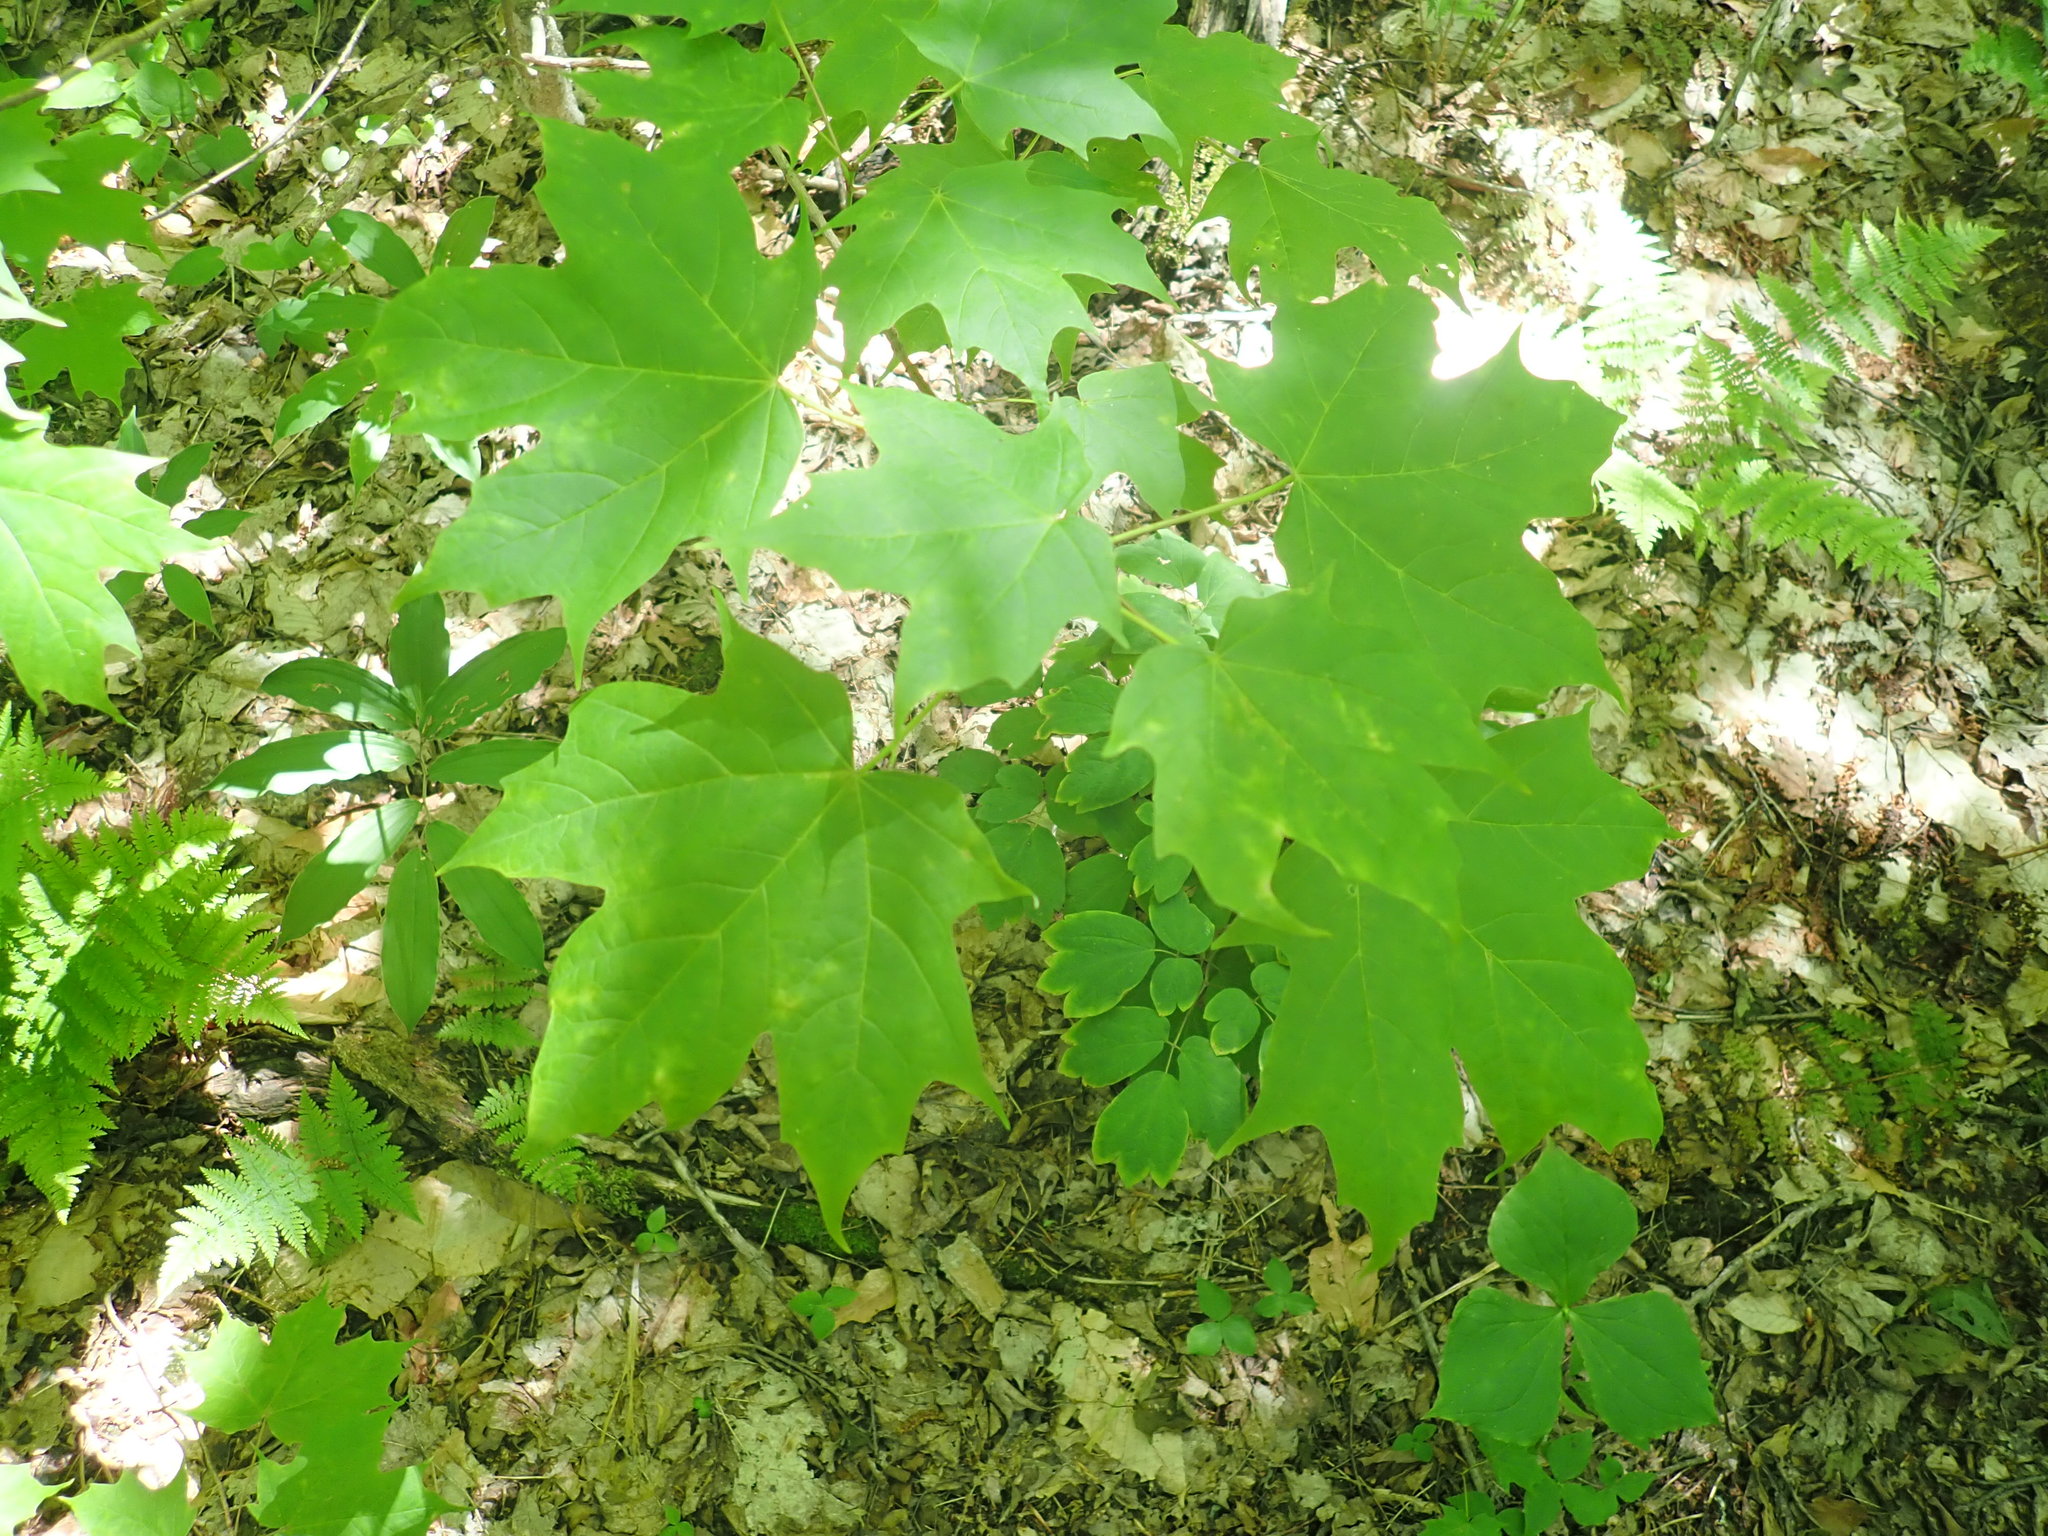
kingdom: Plantae
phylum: Tracheophyta
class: Magnoliopsida
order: Sapindales
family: Sapindaceae
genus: Acer
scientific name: Acer saccharum
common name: Sugar maple
